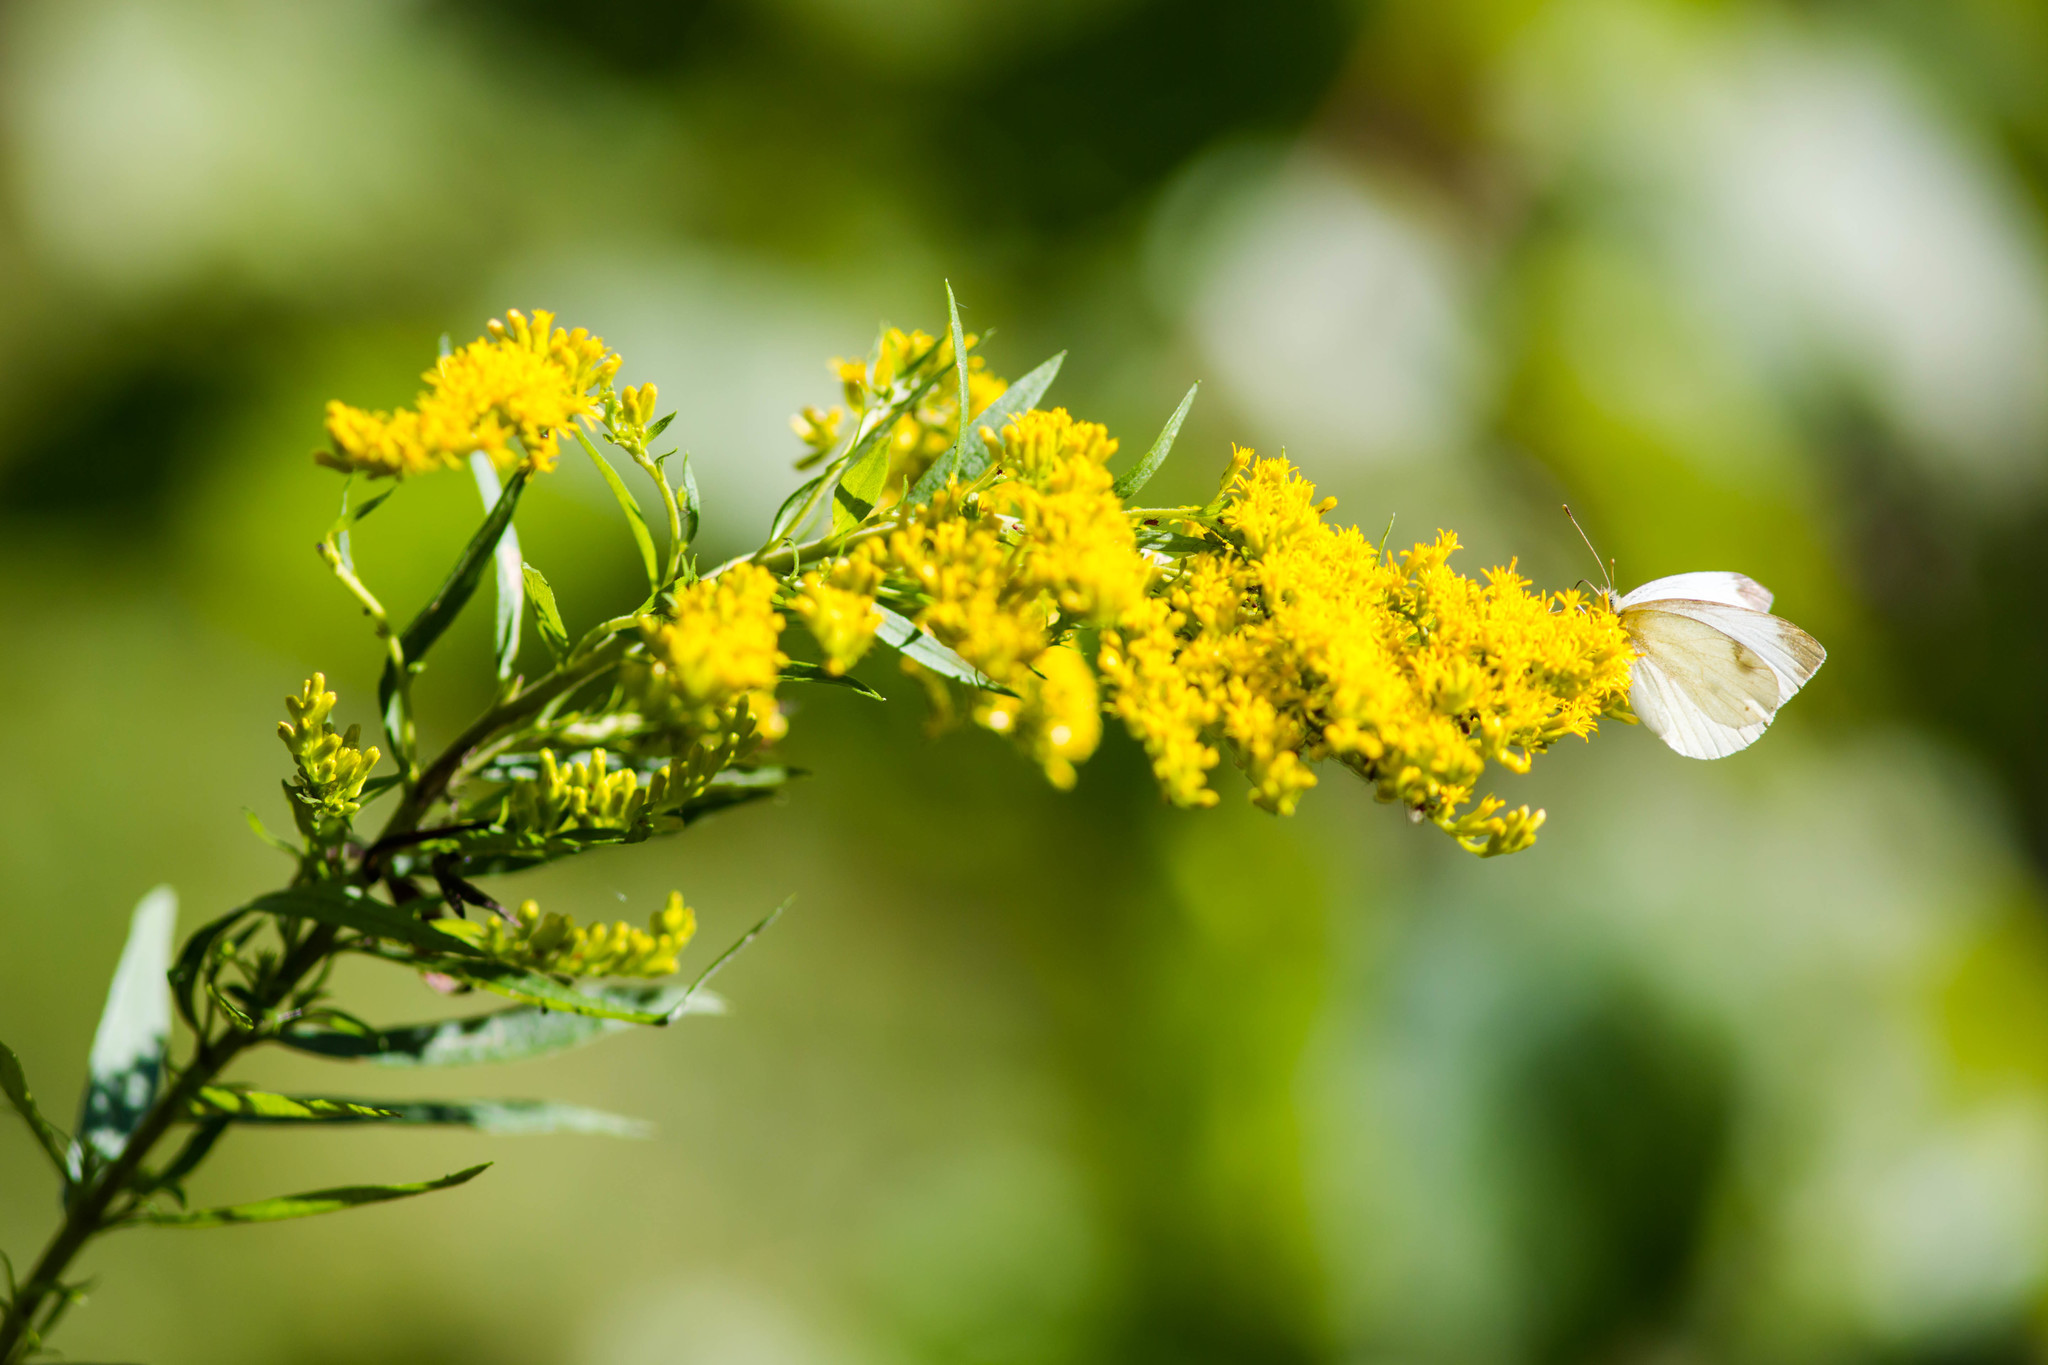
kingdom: Animalia
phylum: Arthropoda
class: Insecta
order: Lepidoptera
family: Pieridae
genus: Pieris
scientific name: Pieris rapae
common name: Small white
